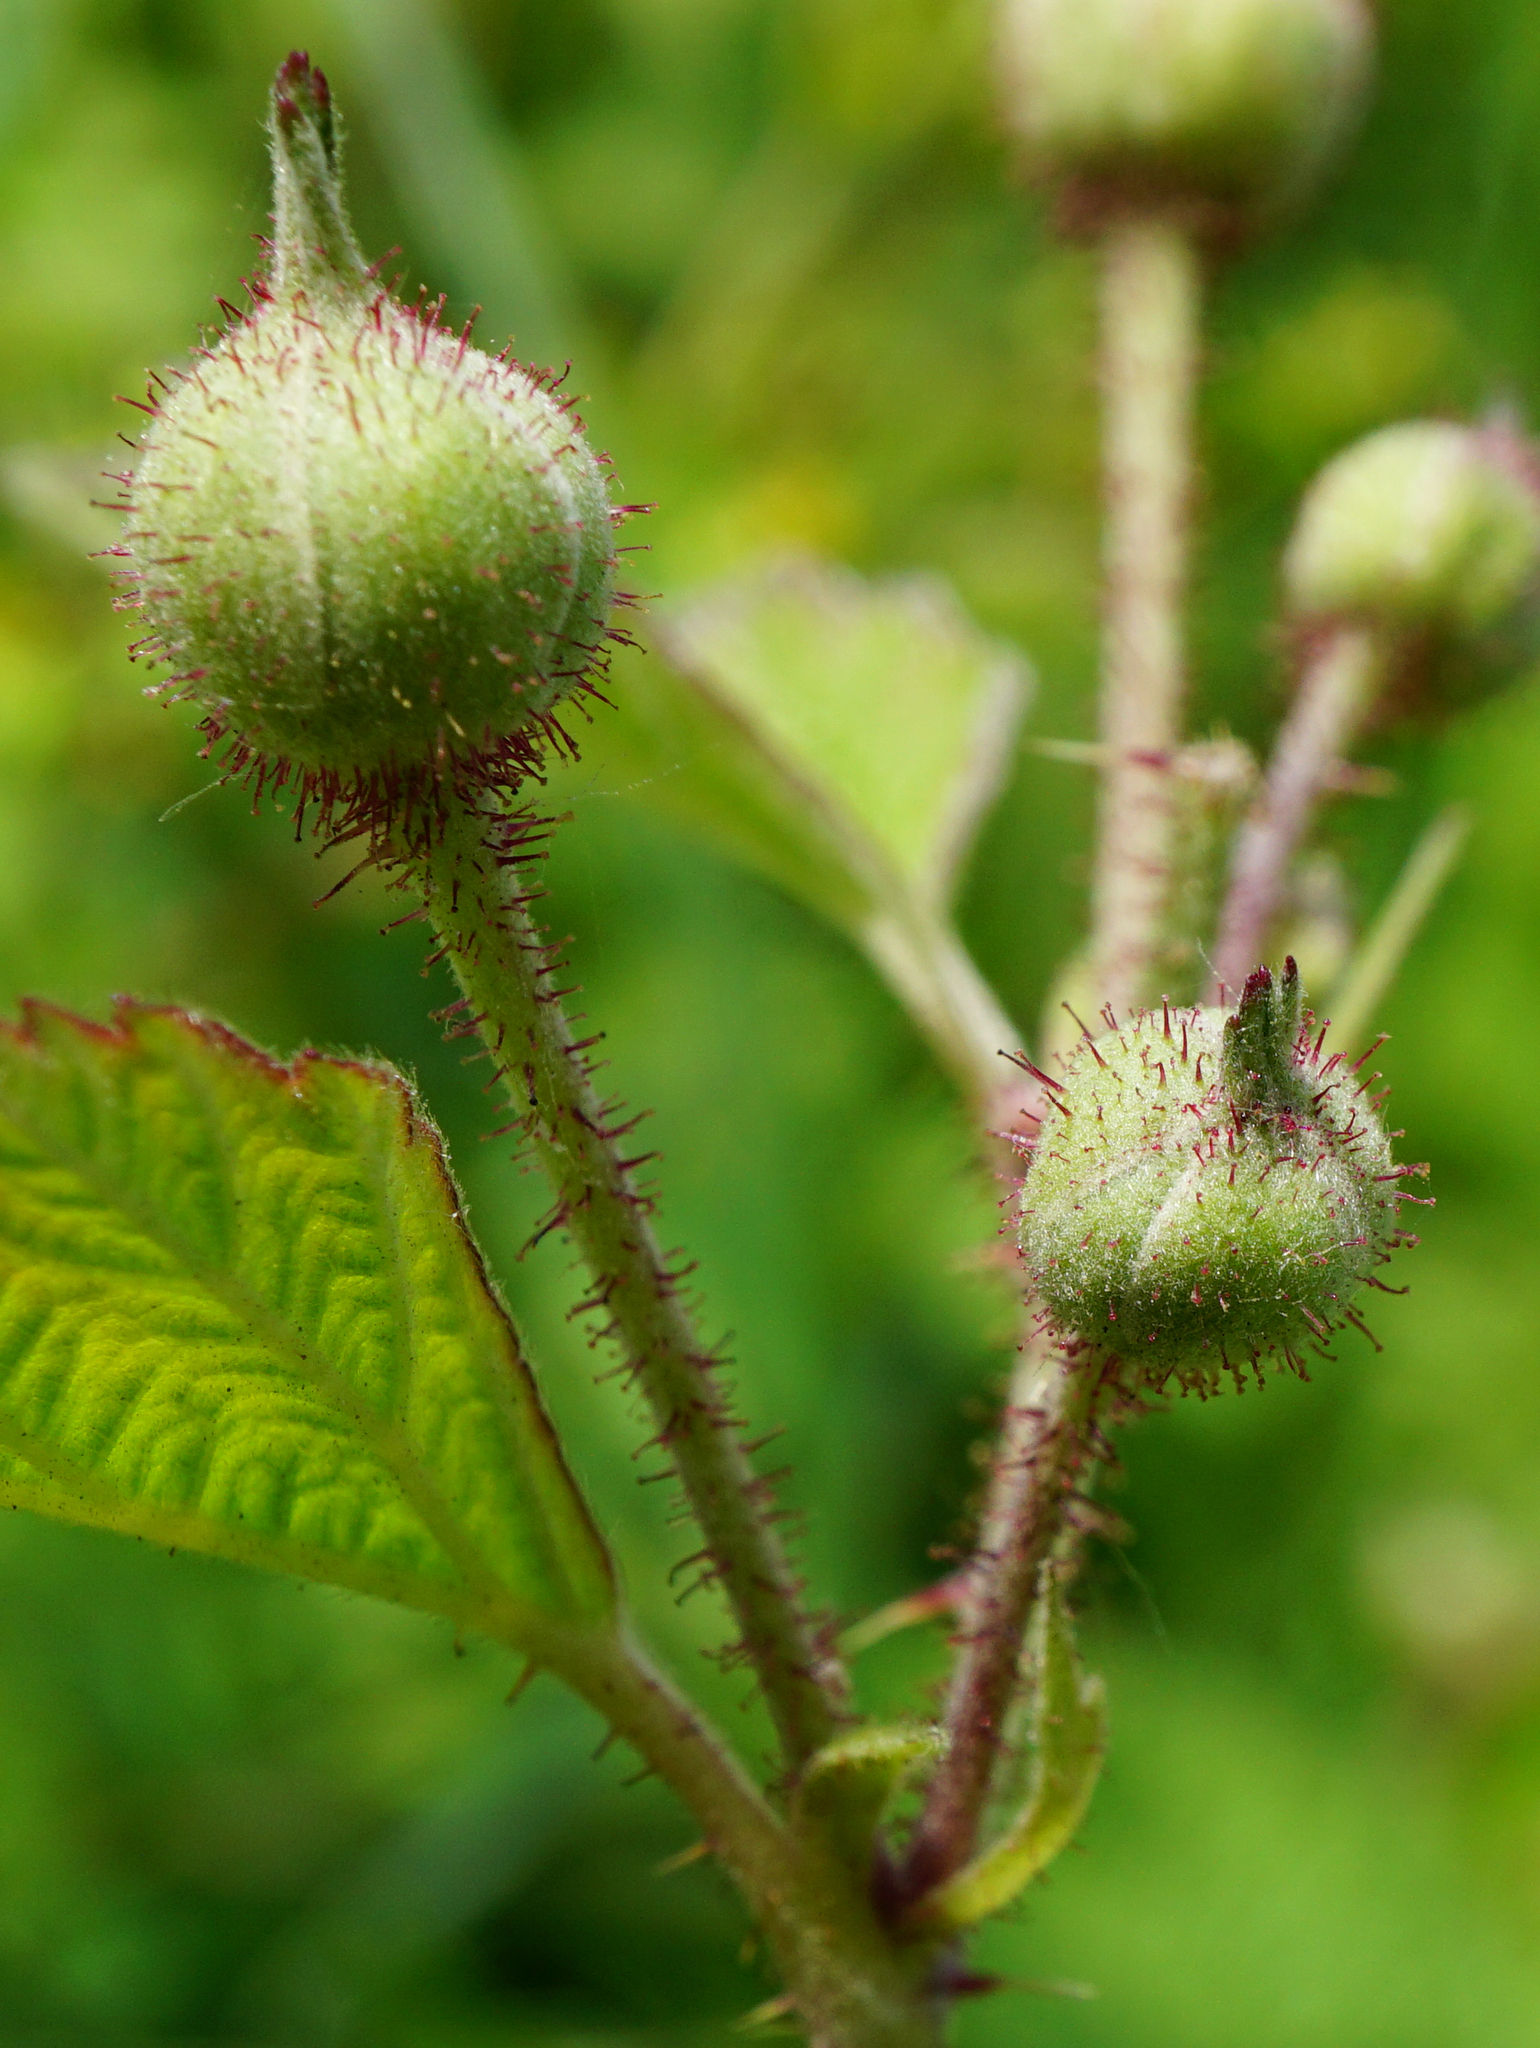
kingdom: Plantae
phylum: Tracheophyta
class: Magnoliopsida
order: Rosales
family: Rosaceae
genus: Rubus
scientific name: Rubus caesius
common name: Dewberry
